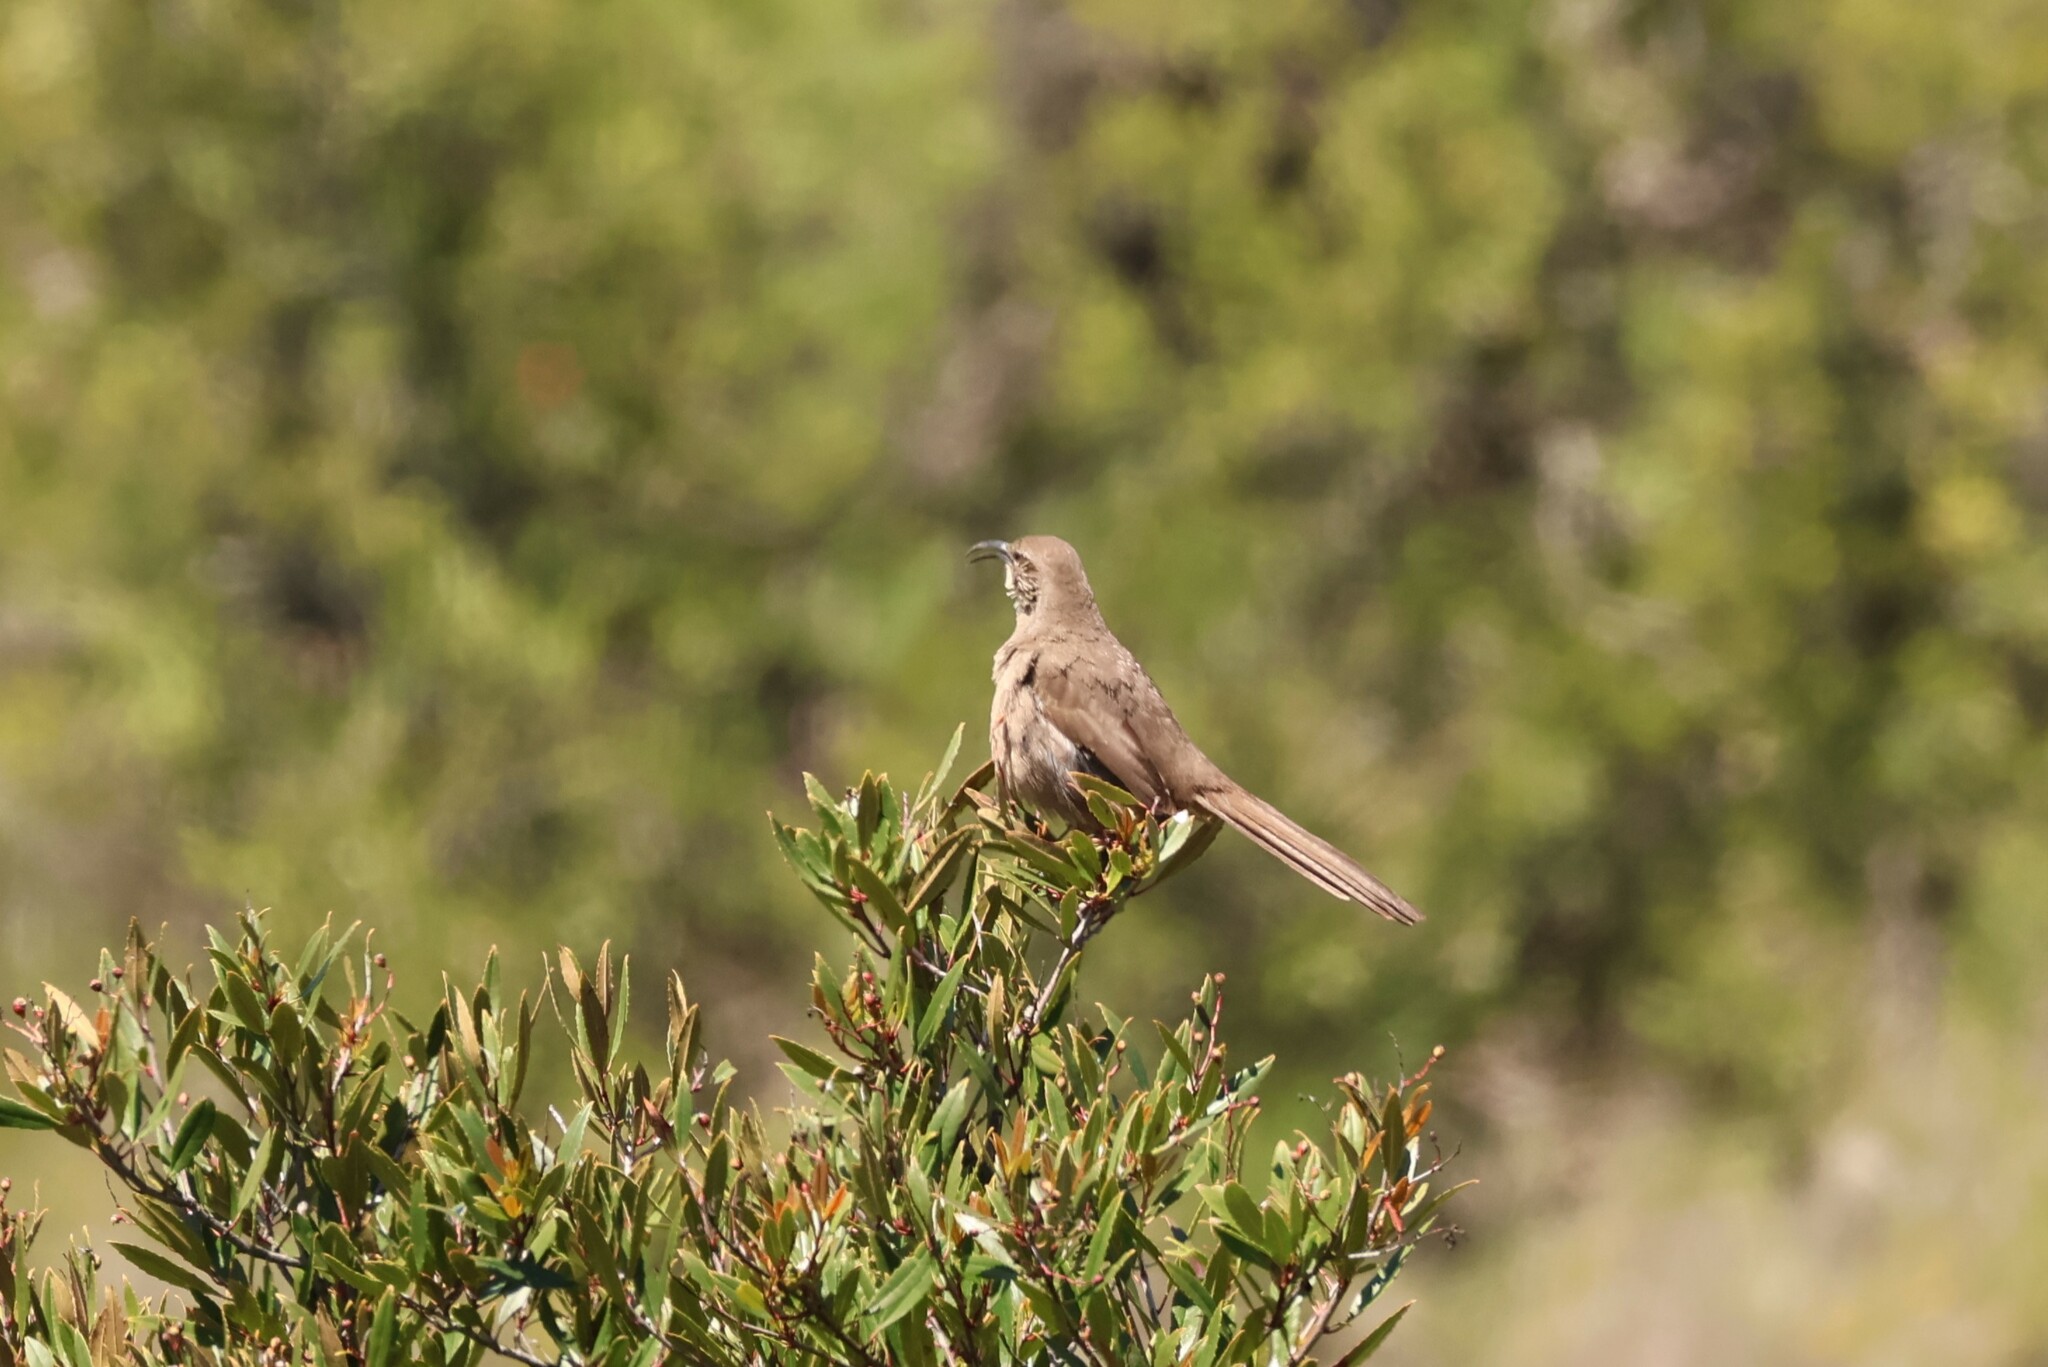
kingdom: Animalia
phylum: Chordata
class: Aves
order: Passeriformes
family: Mimidae
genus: Toxostoma
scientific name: Toxostoma redivivum
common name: California thrasher
